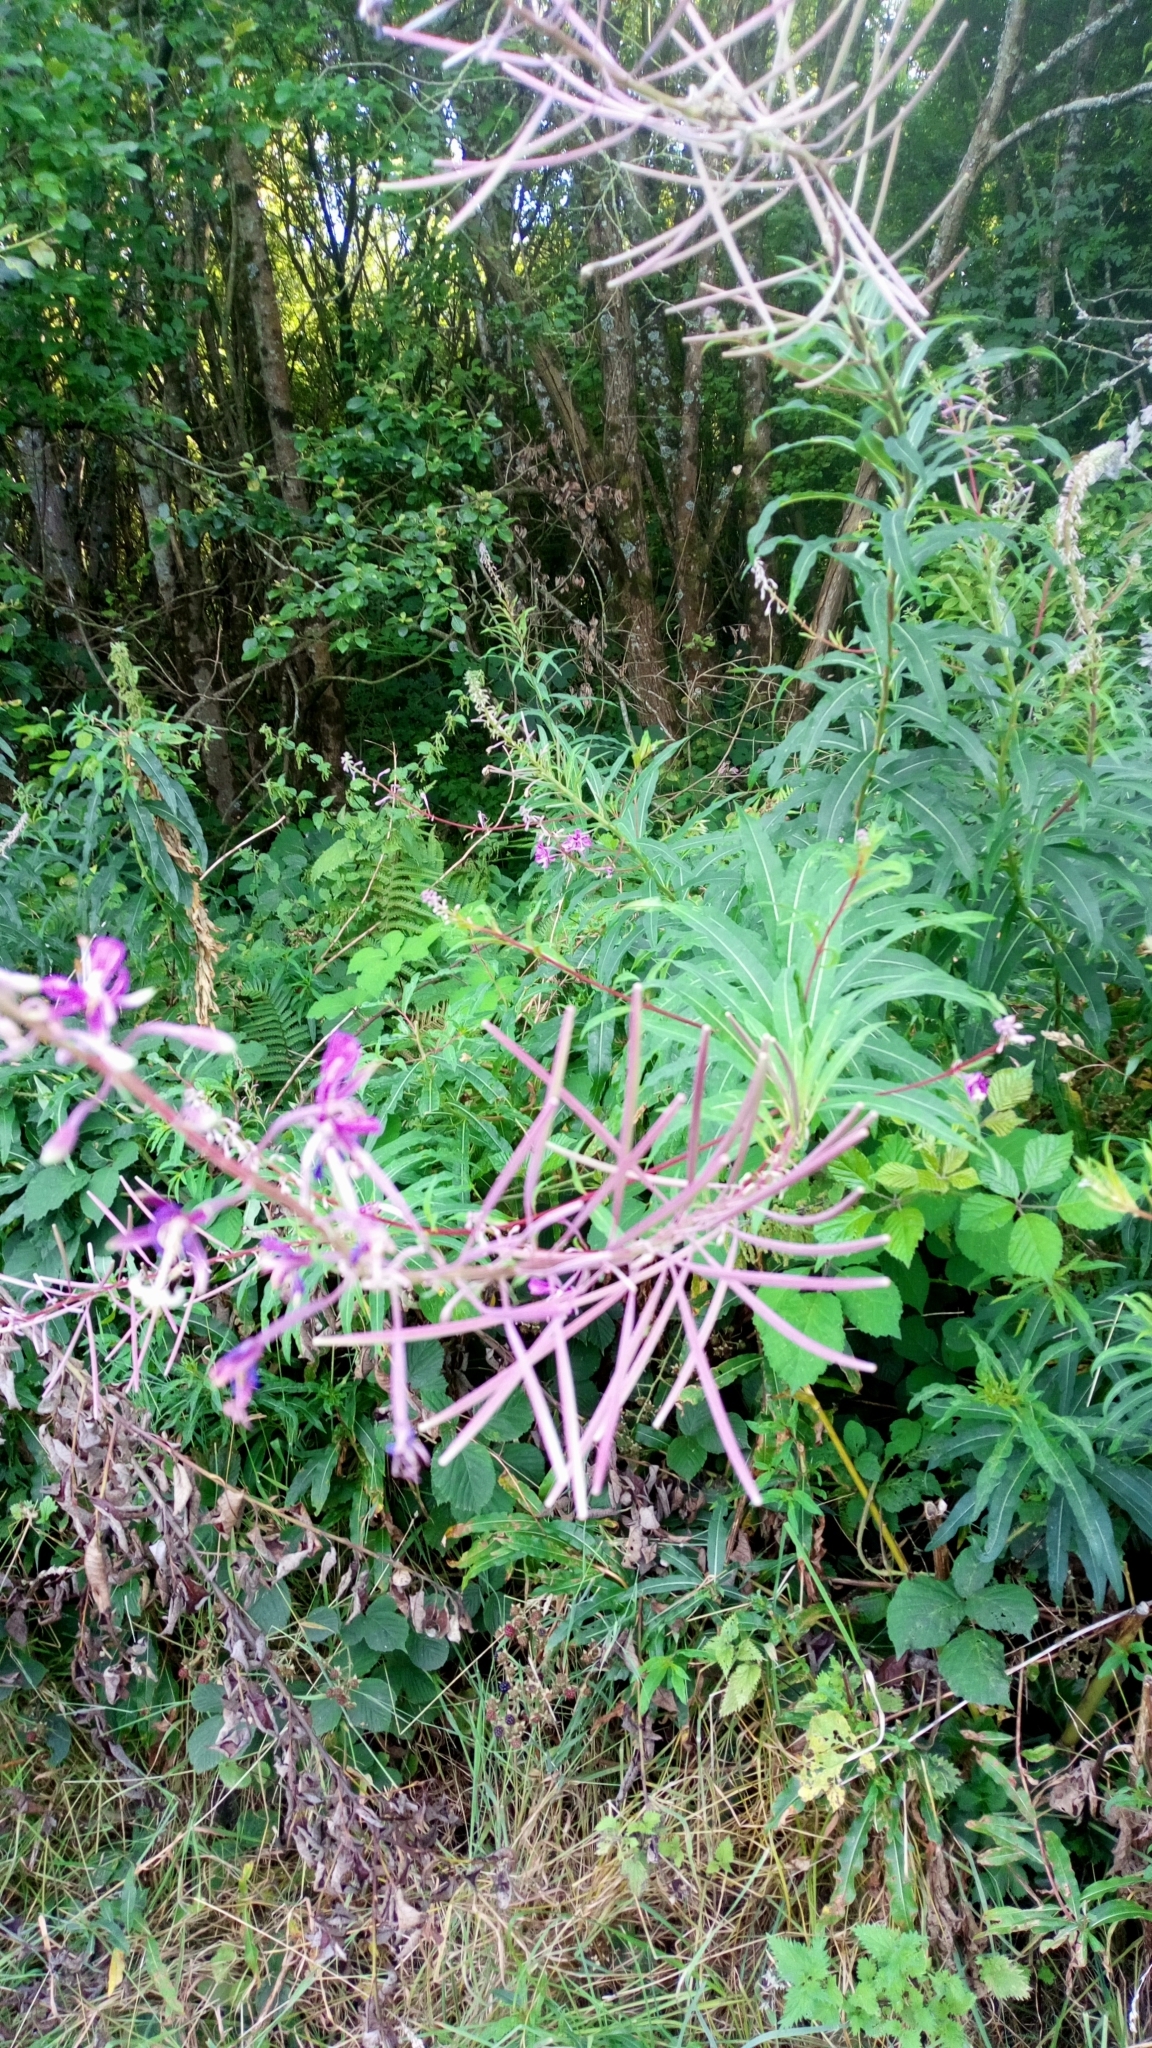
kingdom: Plantae
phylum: Tracheophyta
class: Magnoliopsida
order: Myrtales
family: Onagraceae
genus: Chamaenerion
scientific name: Chamaenerion angustifolium
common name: Fireweed
